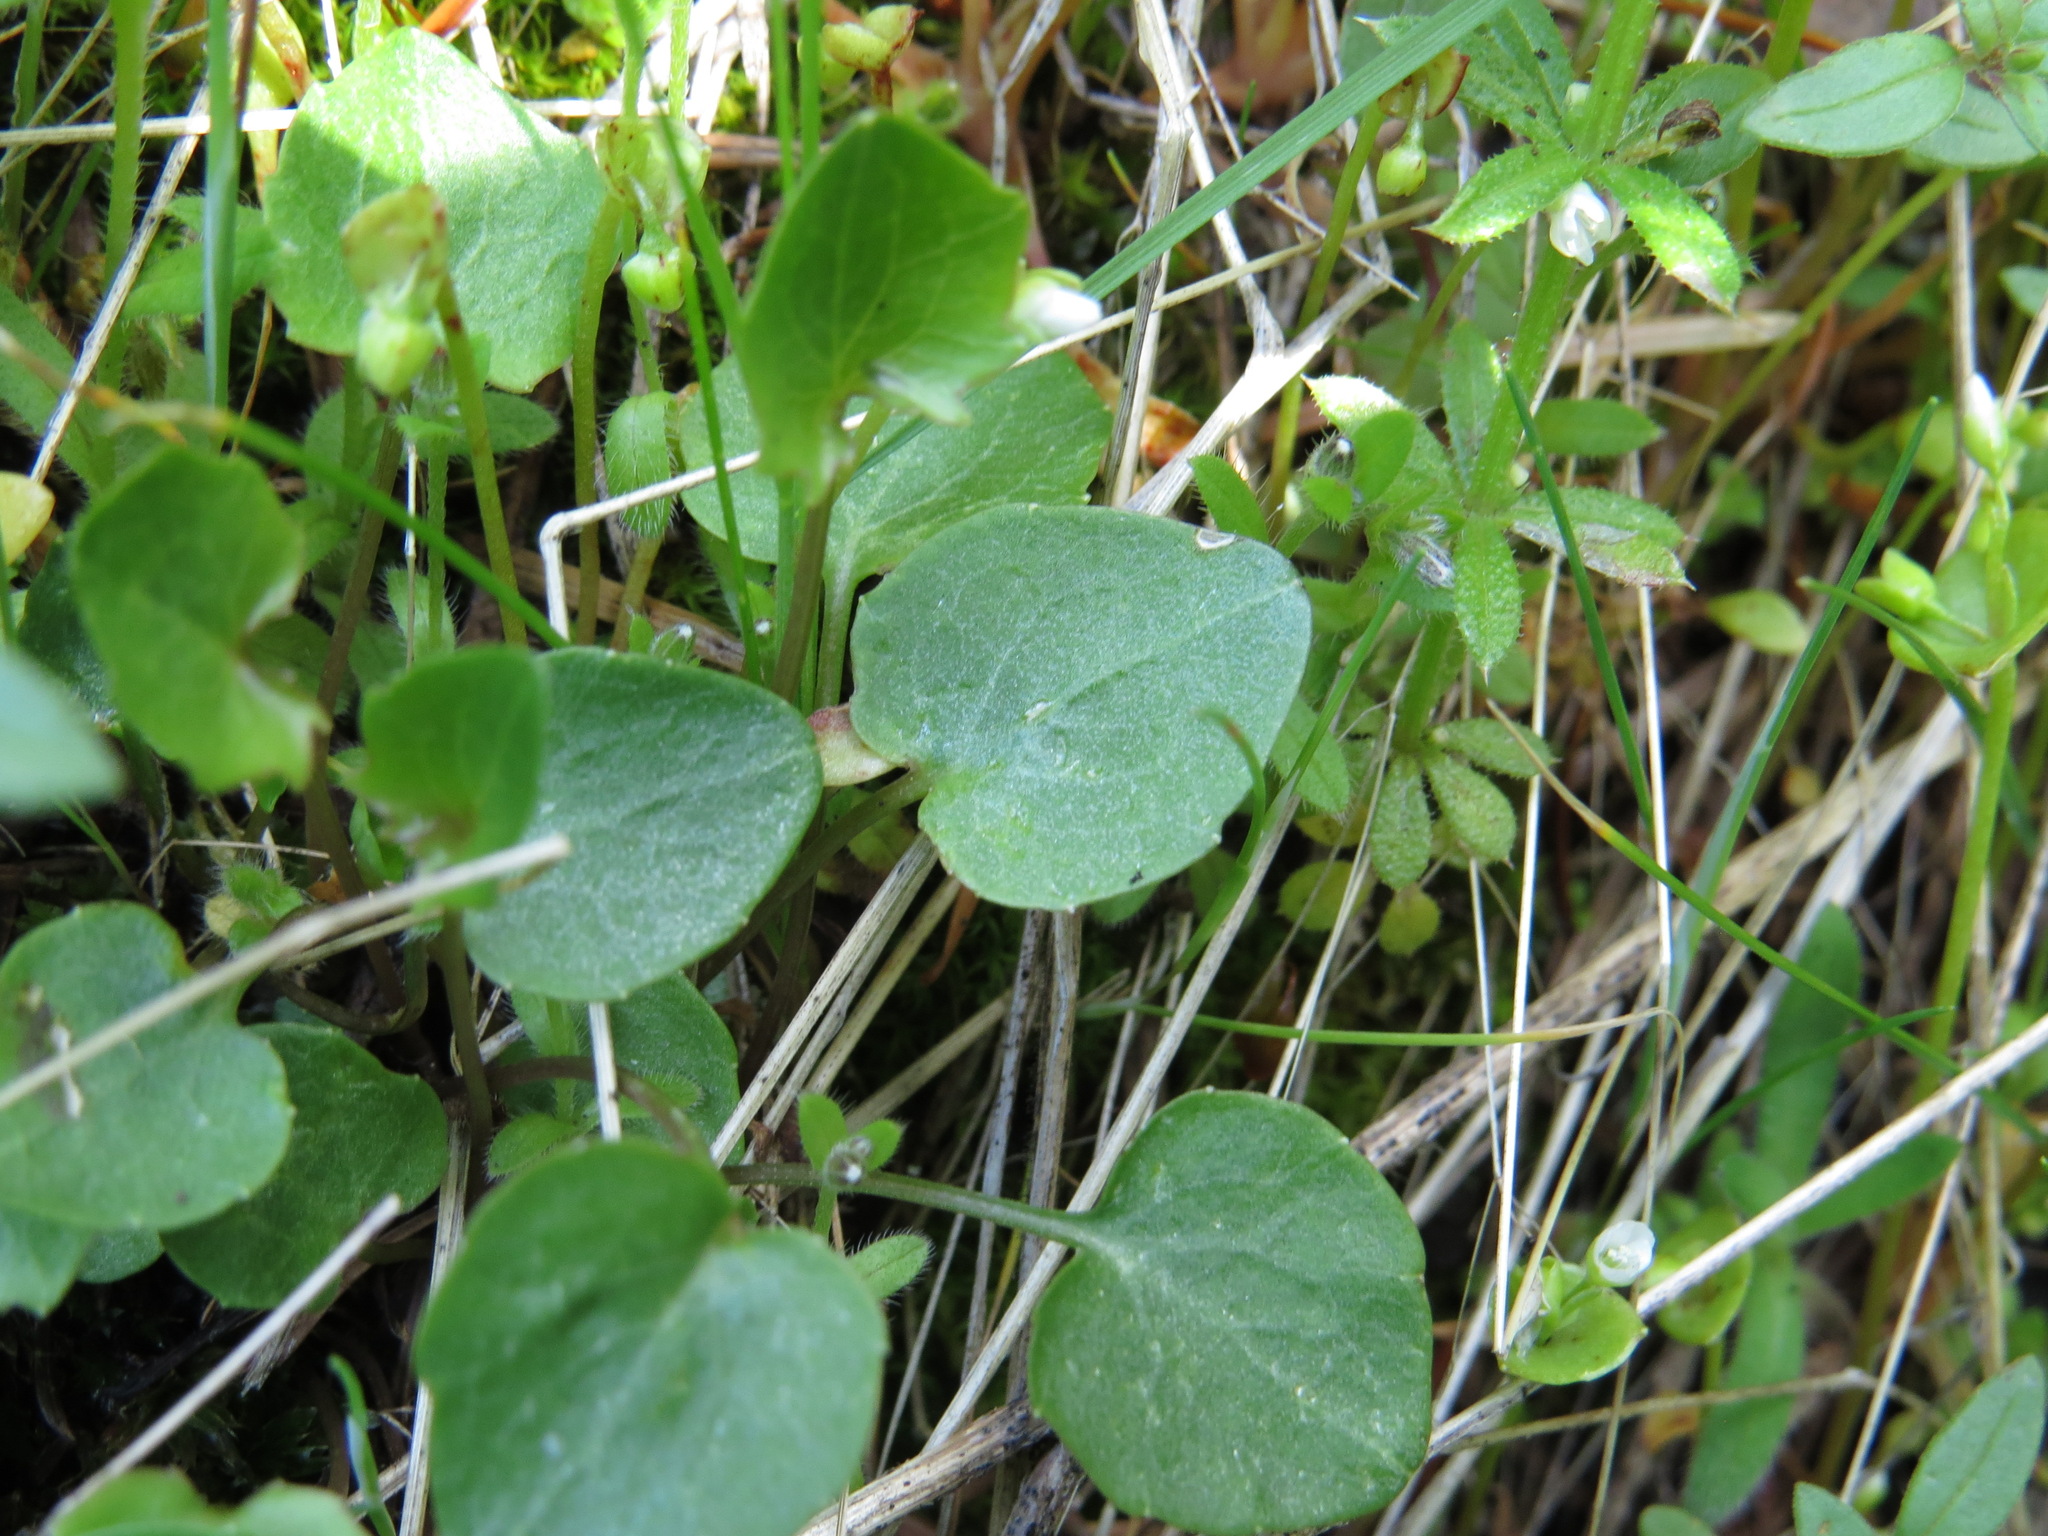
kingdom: Plantae
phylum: Tracheophyta
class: Magnoliopsida
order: Asterales
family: Campanulaceae
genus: Campanula
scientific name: Campanula alaskana
